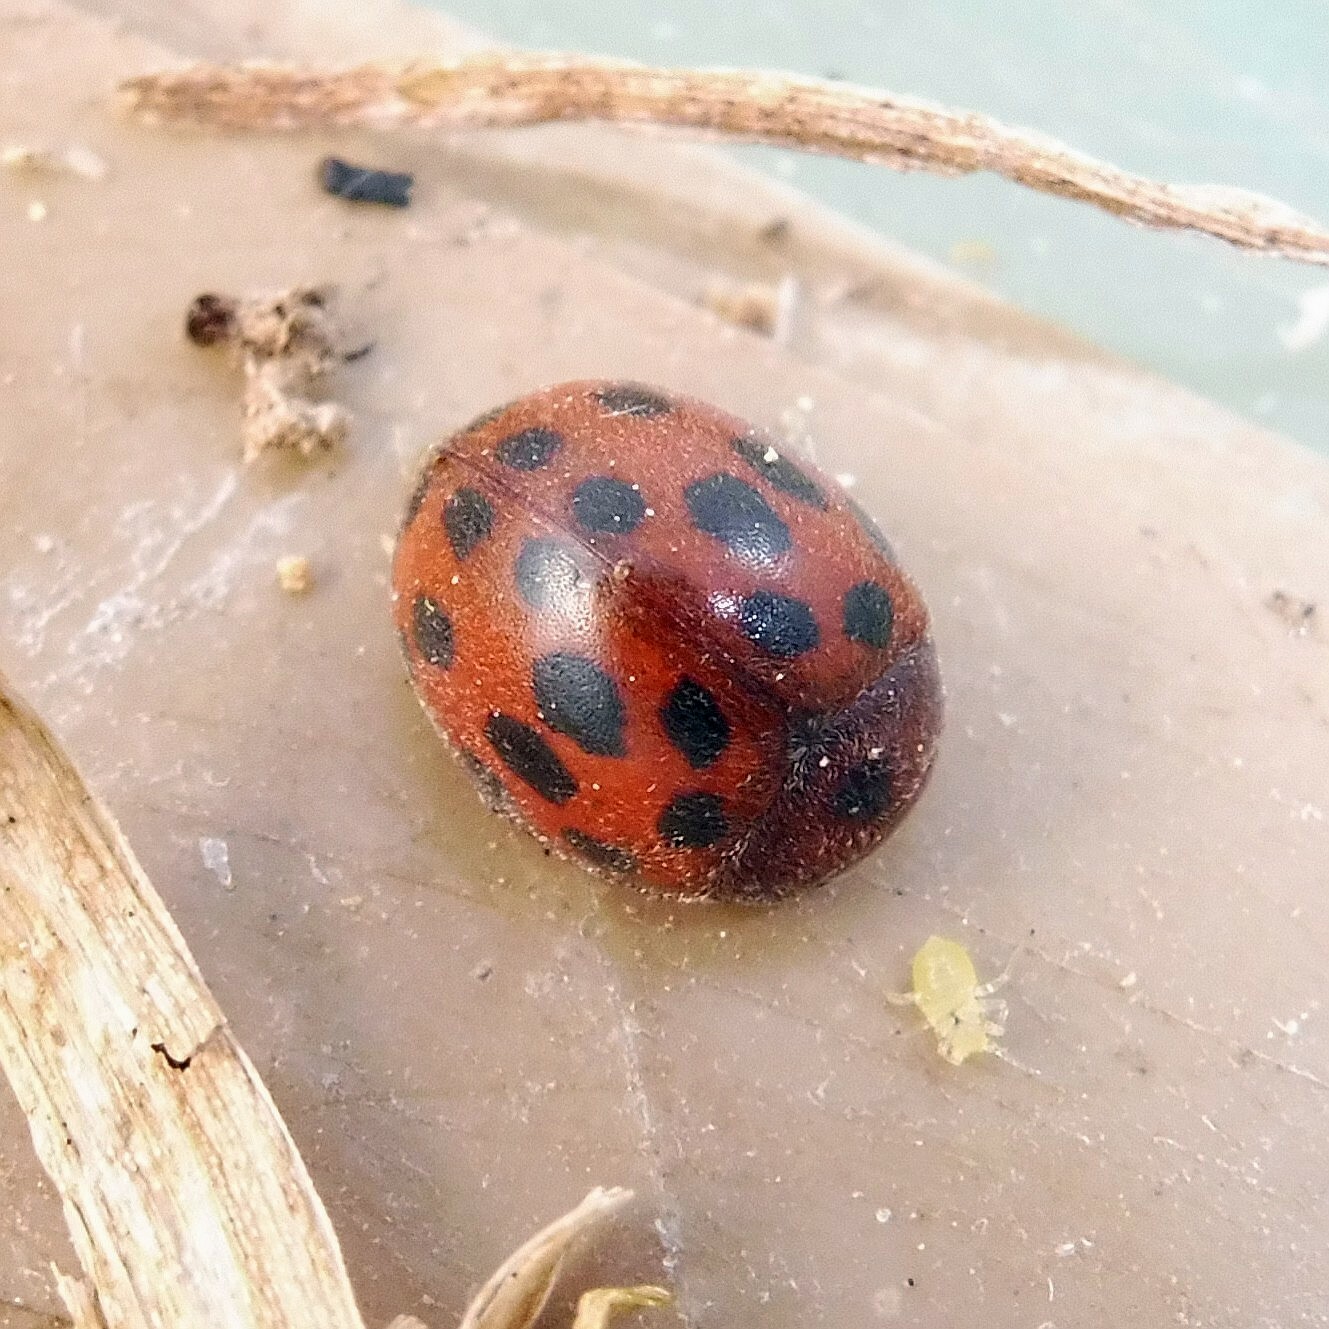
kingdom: Animalia
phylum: Arthropoda
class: Insecta
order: Coleoptera
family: Coccinellidae
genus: Subcoccinella
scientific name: Subcoccinella vigintiquatuorpunctata
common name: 24-spot ladybird
